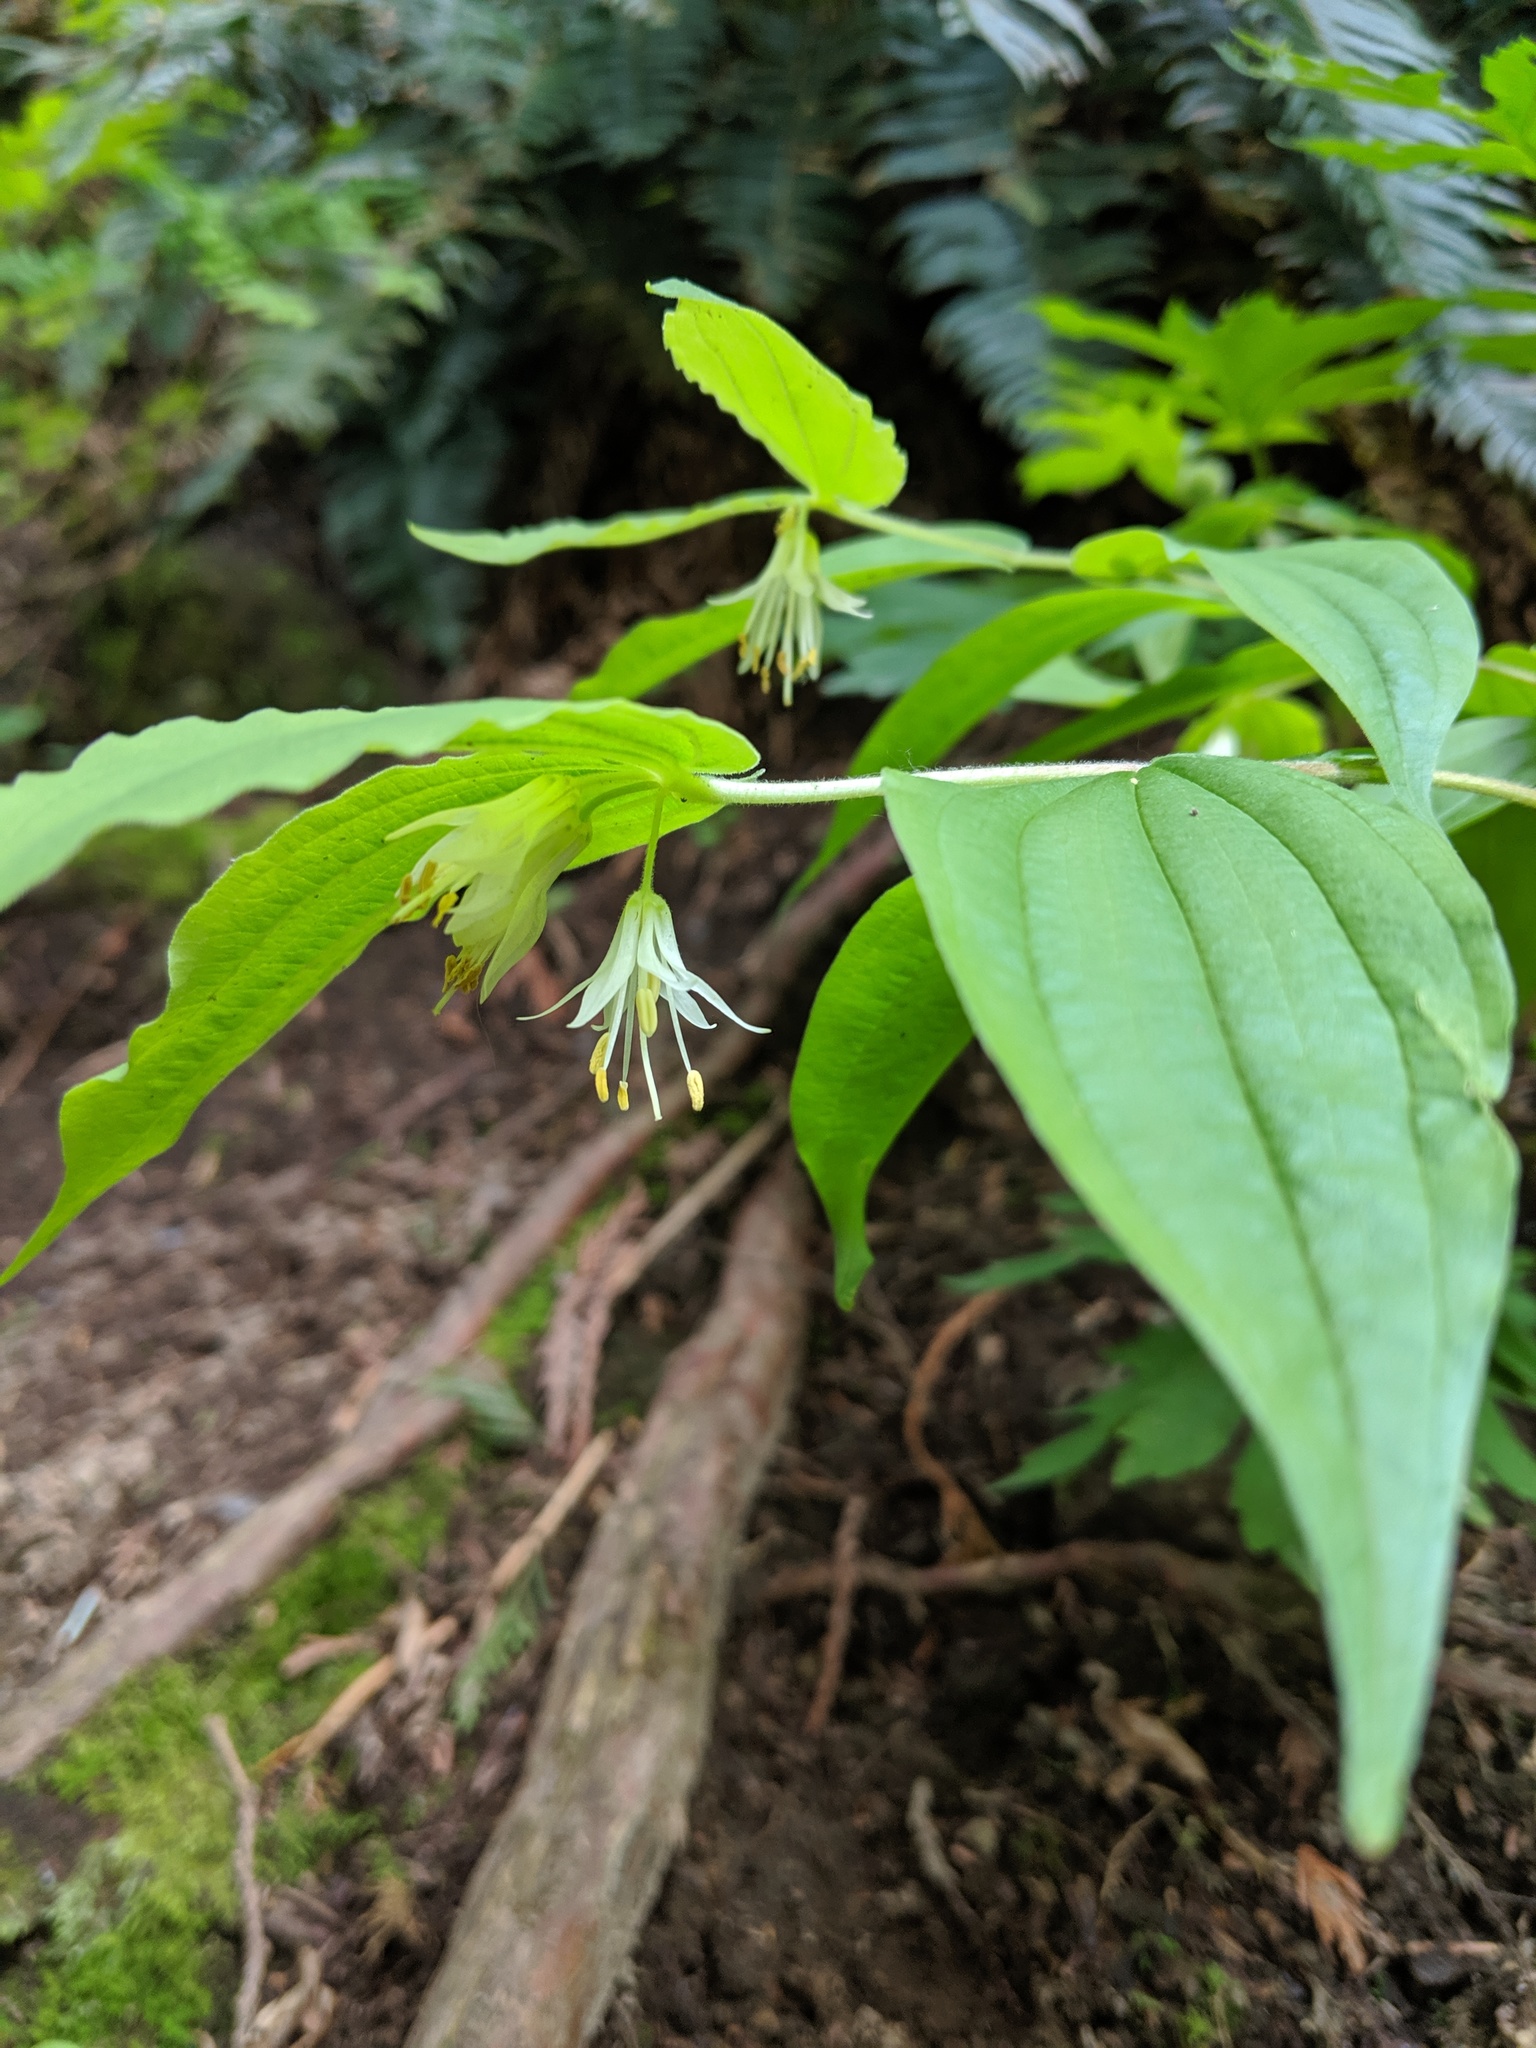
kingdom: Plantae
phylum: Tracheophyta
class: Liliopsida
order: Liliales
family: Liliaceae
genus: Prosartes
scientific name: Prosartes hookeri
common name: Fairy-bells
